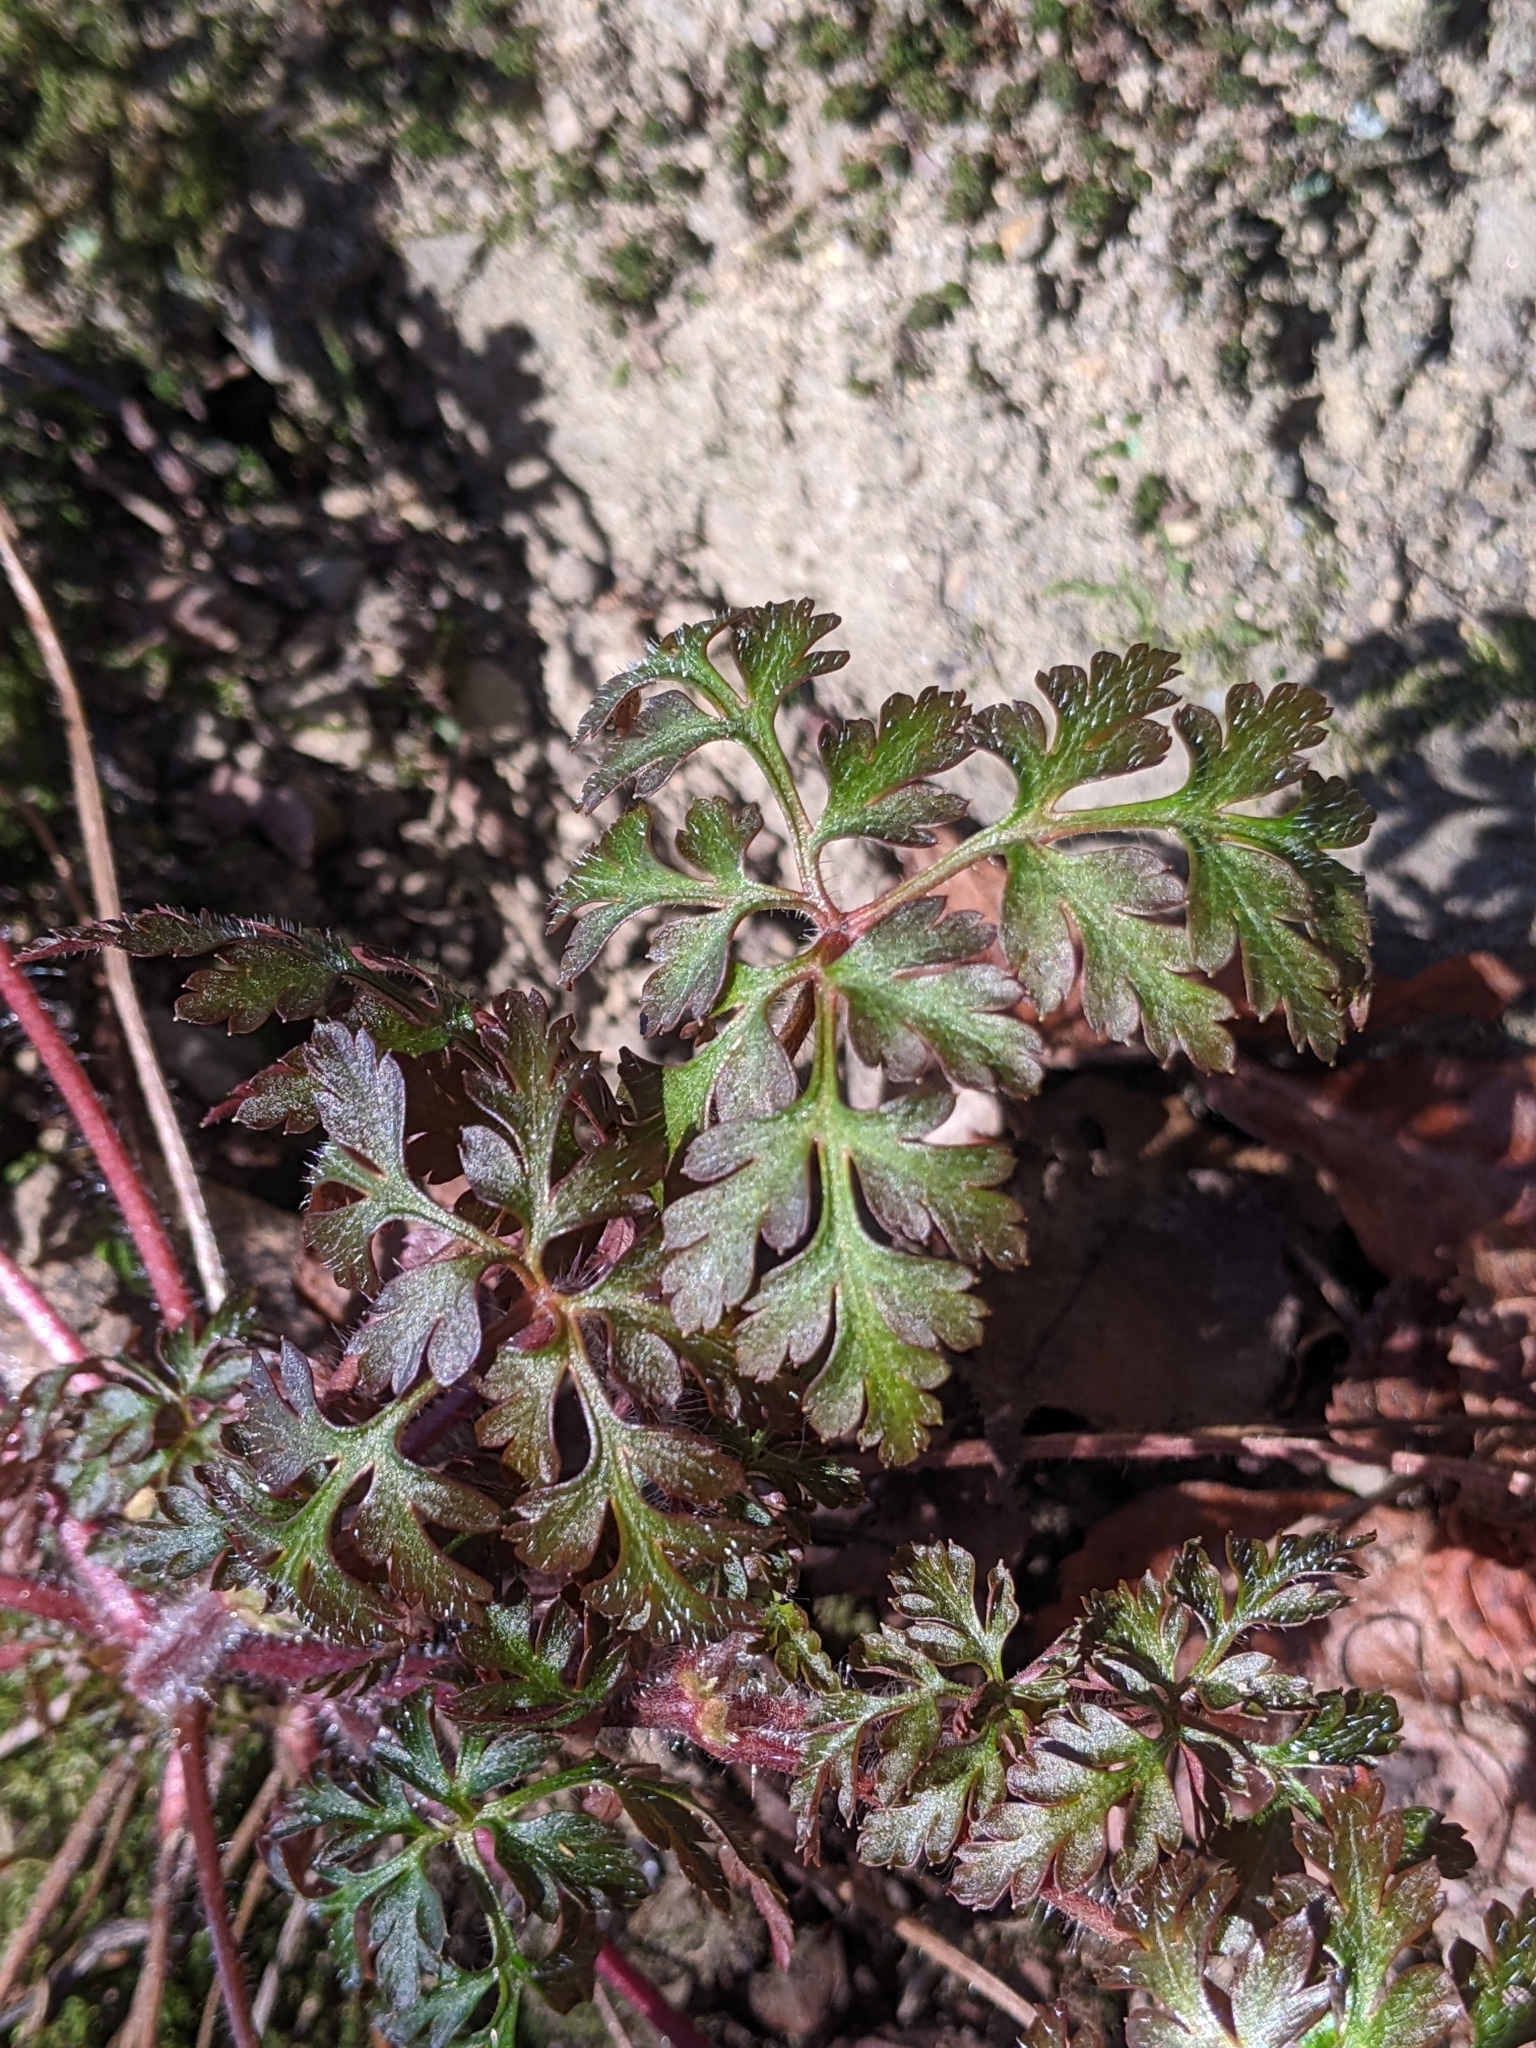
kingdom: Plantae
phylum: Tracheophyta
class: Magnoliopsida
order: Geraniales
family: Geraniaceae
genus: Geranium
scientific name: Geranium robertianum
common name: Herb-robert
